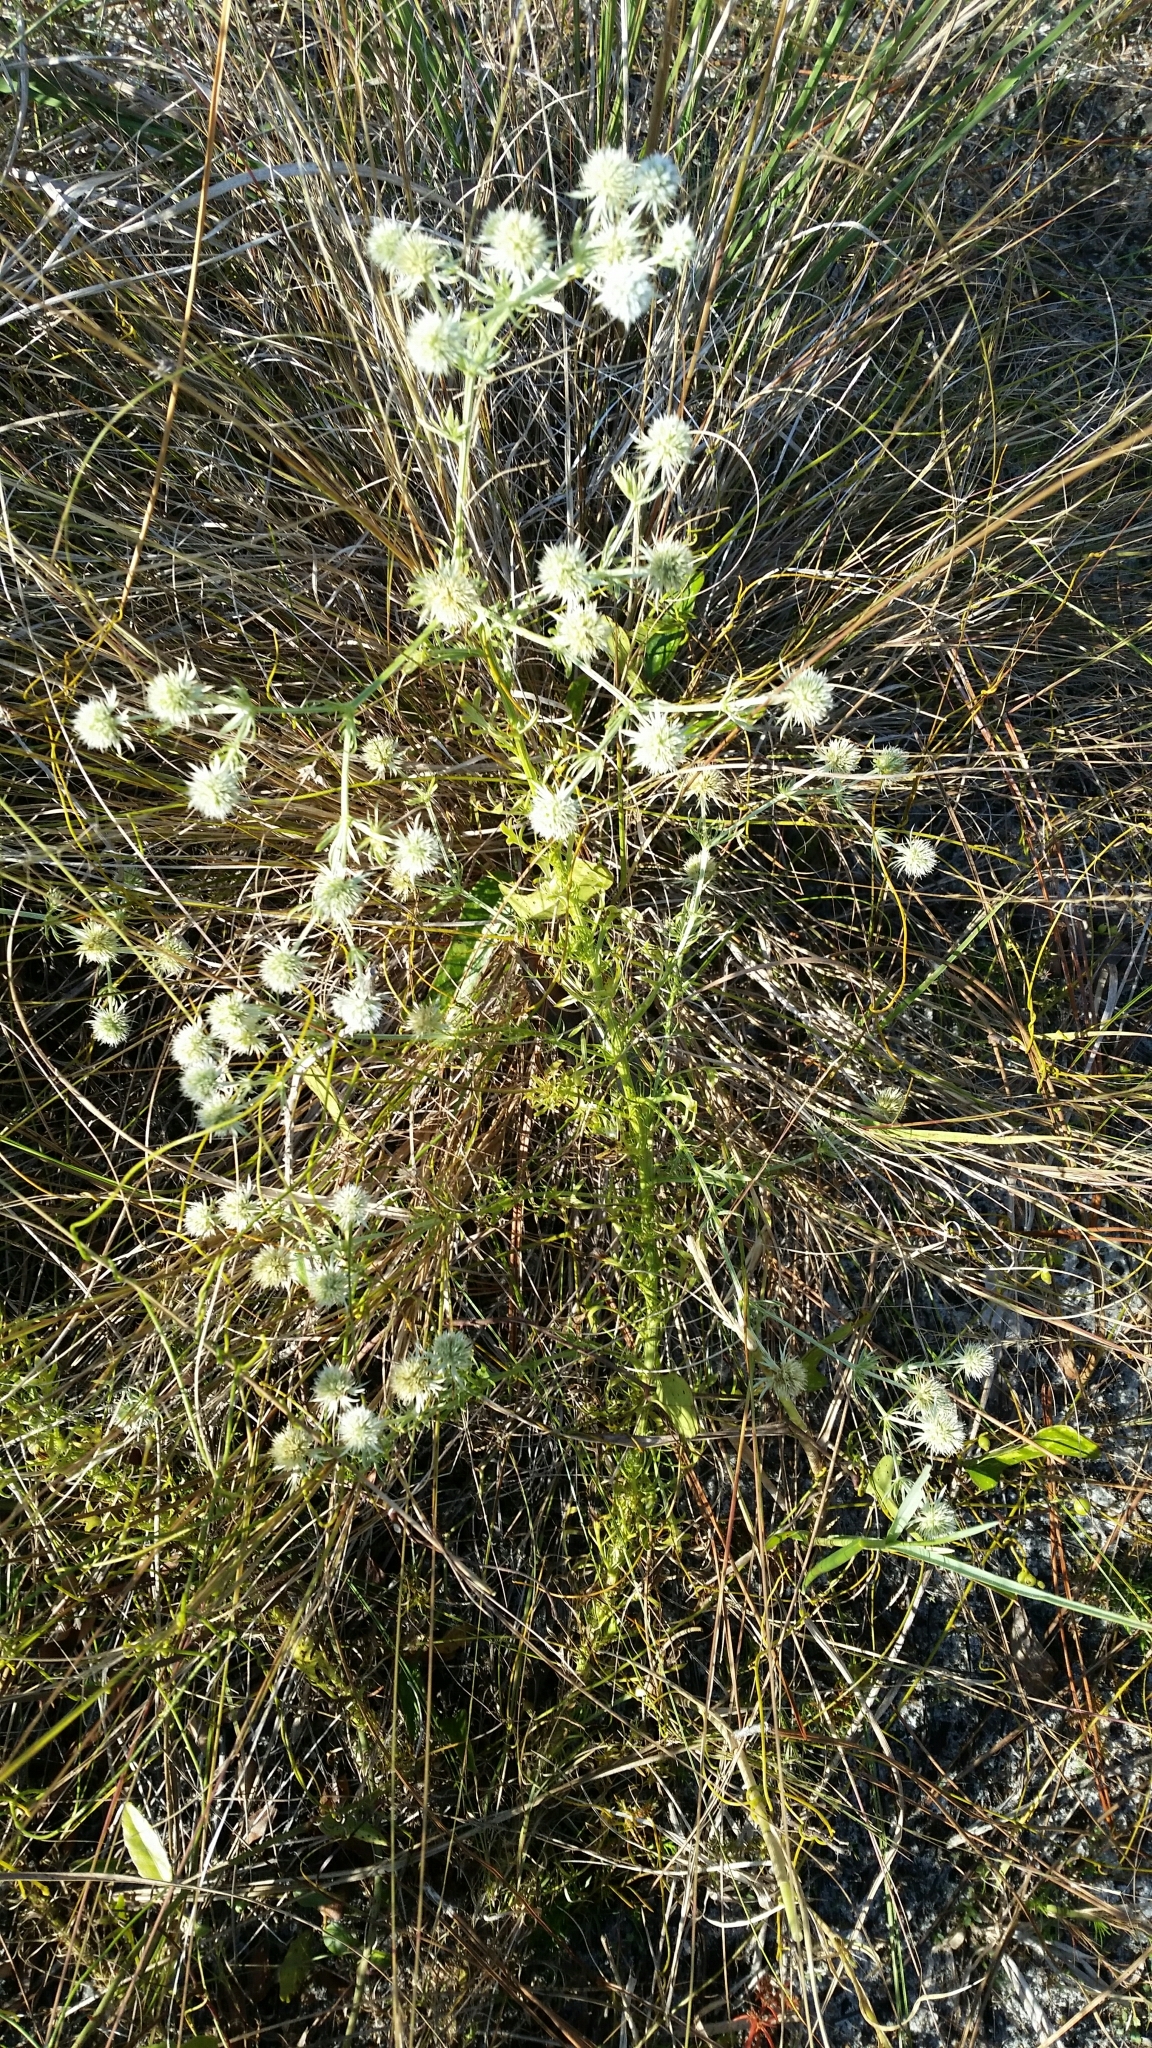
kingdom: Plantae
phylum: Tracheophyta
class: Magnoliopsida
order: Apiales
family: Apiaceae
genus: Eryngium
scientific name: Eryngium aromaticum
